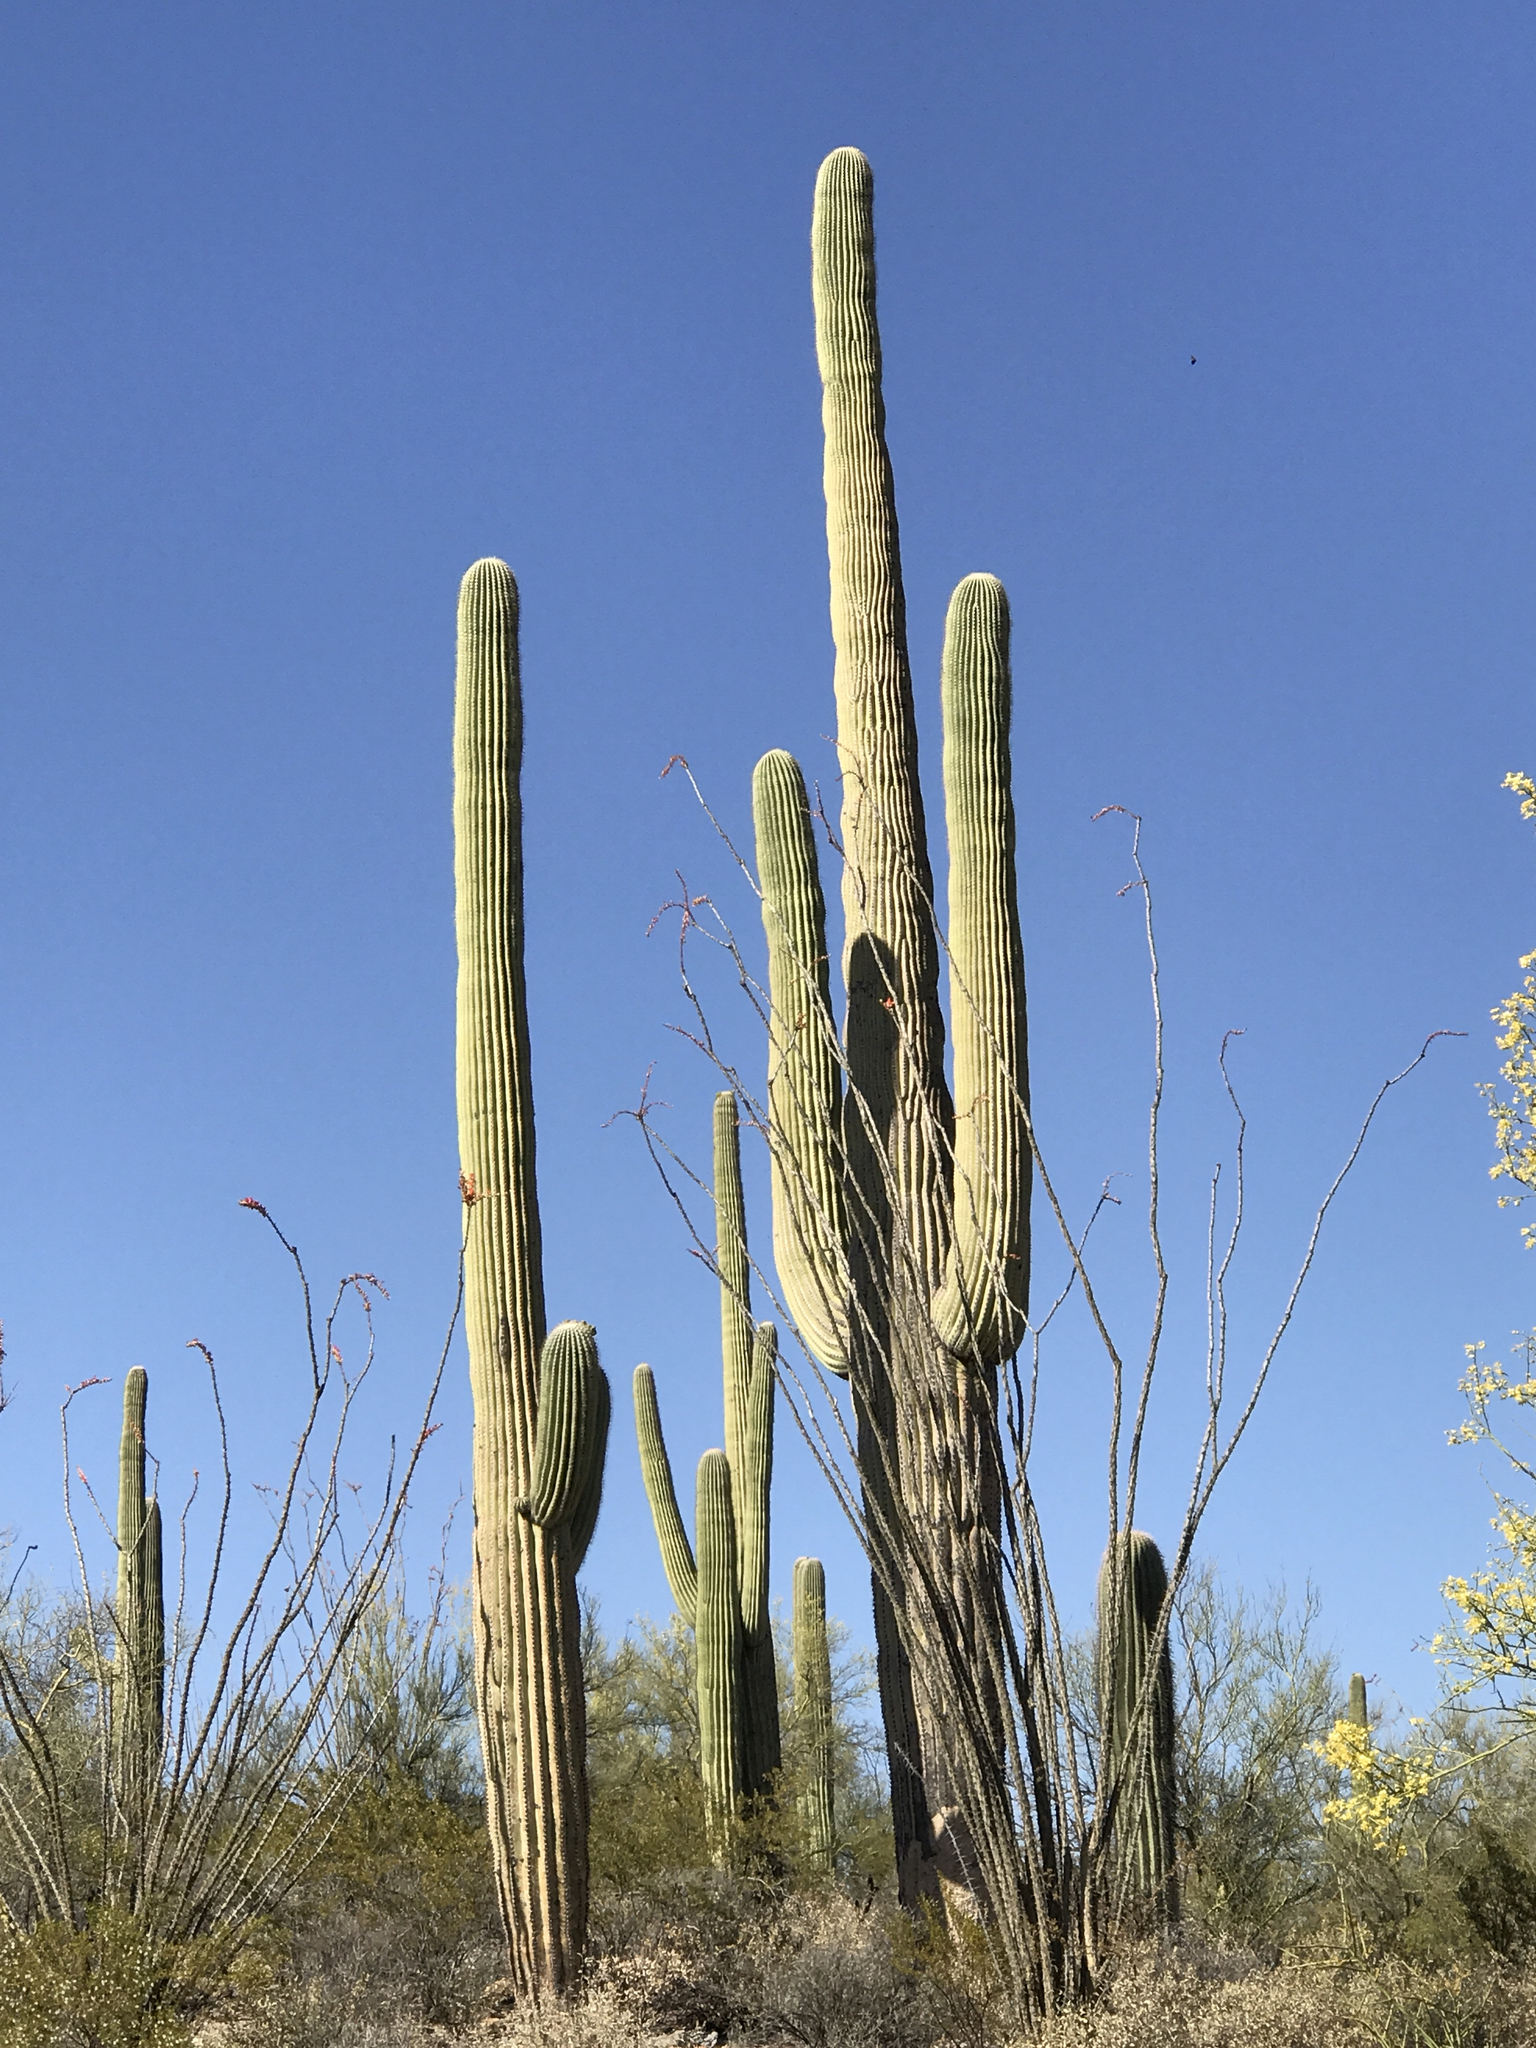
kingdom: Plantae
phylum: Tracheophyta
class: Magnoliopsida
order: Caryophyllales
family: Cactaceae
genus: Carnegiea
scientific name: Carnegiea gigantea
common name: Saguaro
